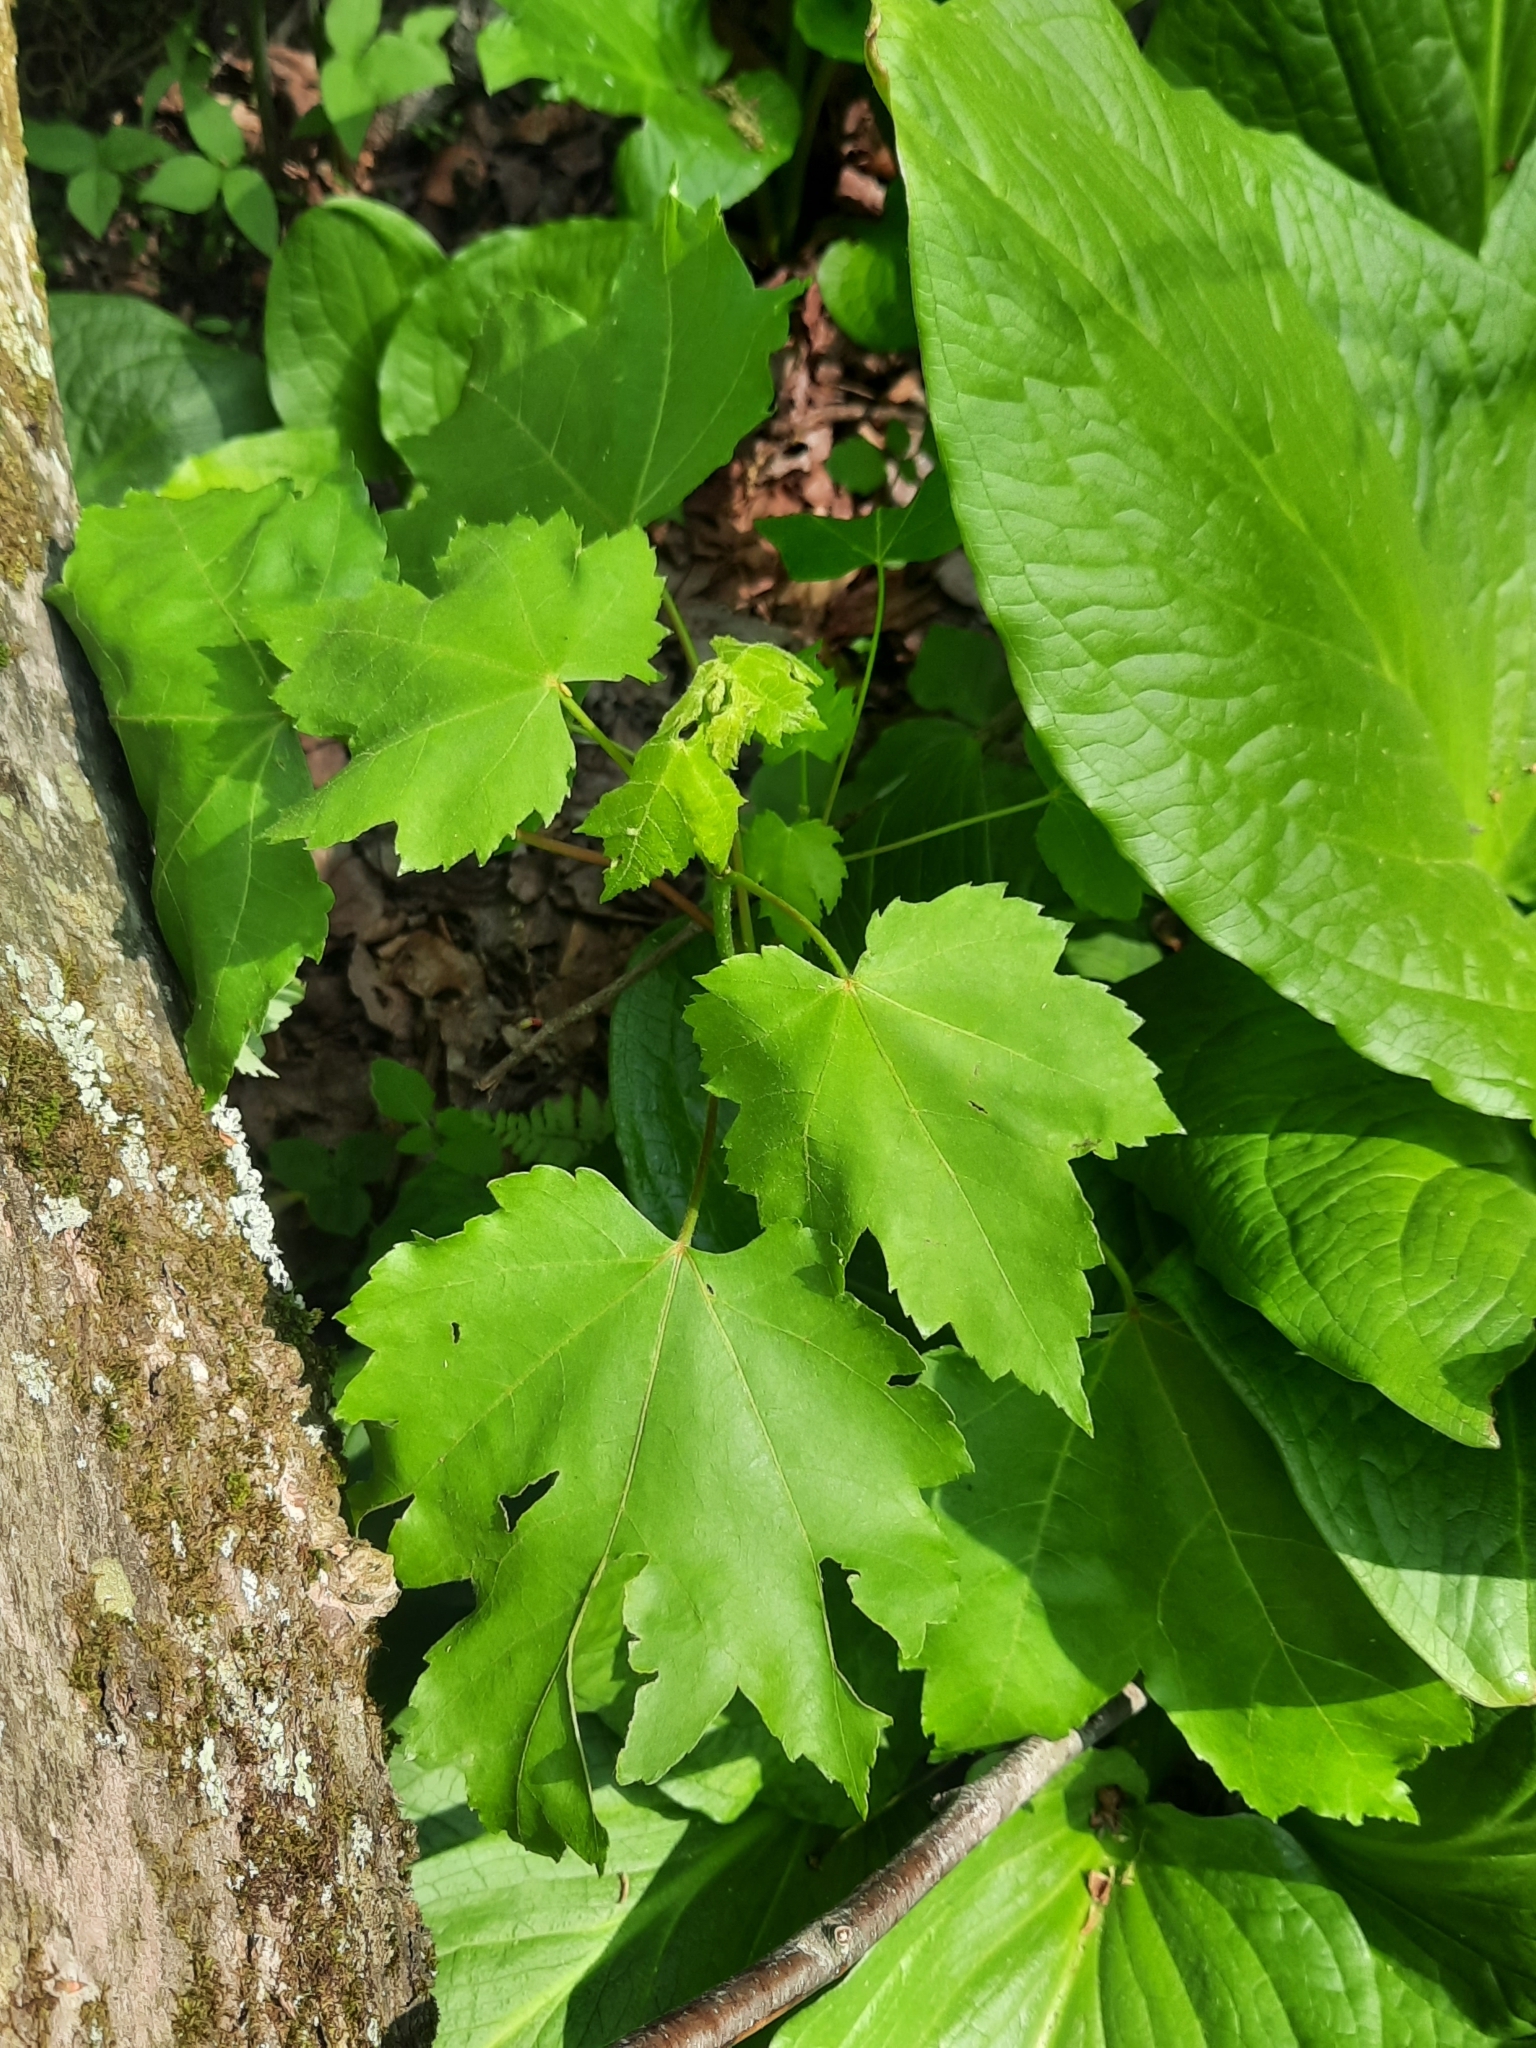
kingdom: Plantae
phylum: Tracheophyta
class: Magnoliopsida
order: Sapindales
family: Sapindaceae
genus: Acer
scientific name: Acer rubrum
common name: Red maple
